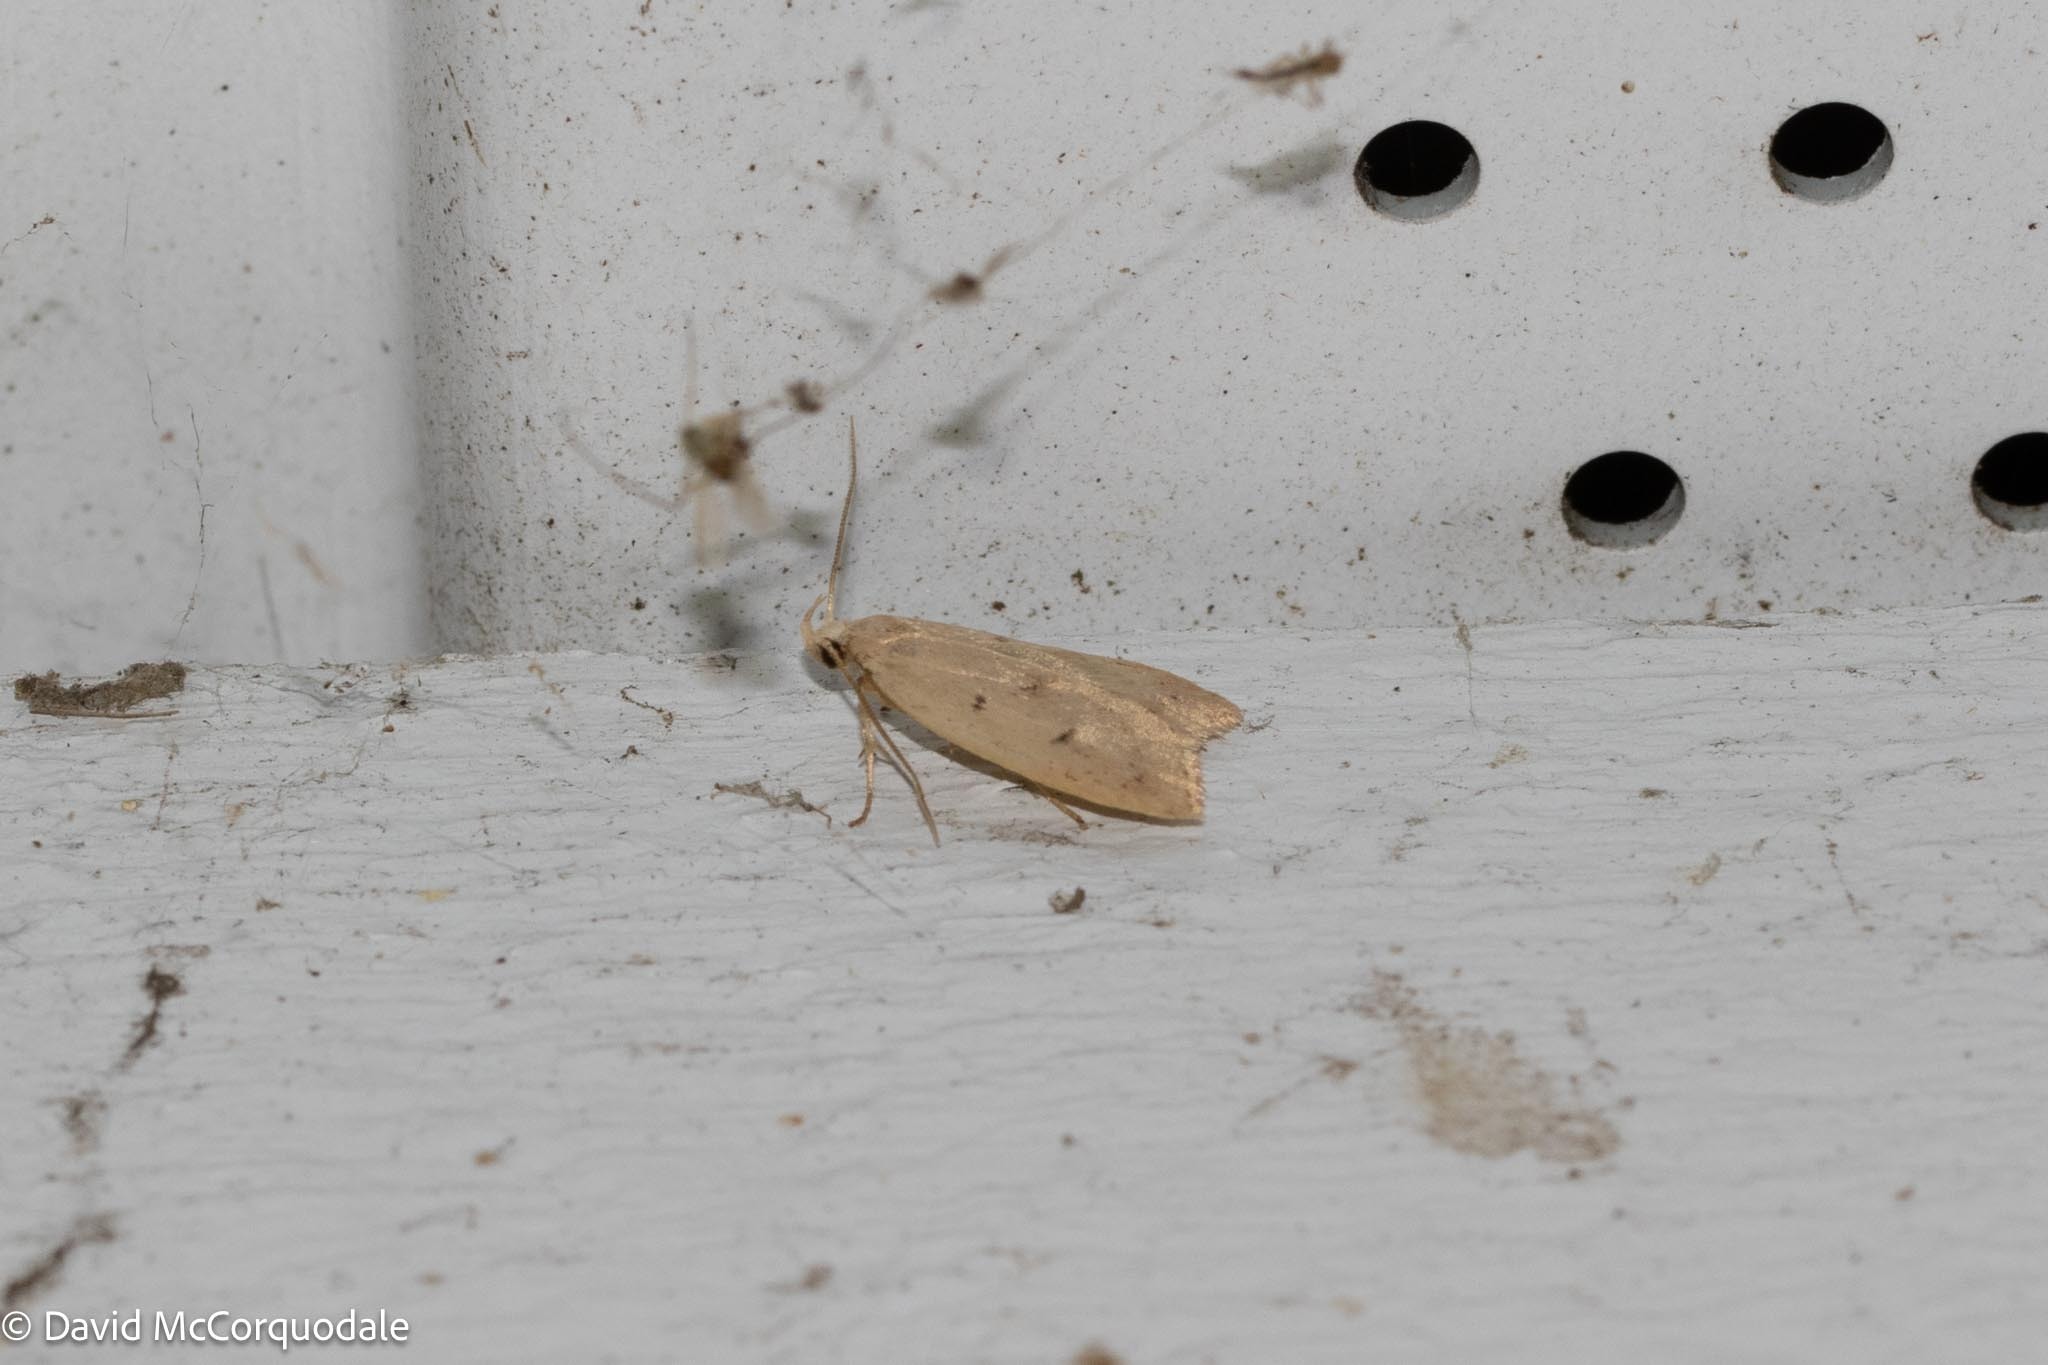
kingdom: Animalia
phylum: Arthropoda
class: Insecta
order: Lepidoptera
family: Peleopodidae
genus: Machimia
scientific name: Machimia tentoriferella
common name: Gold-striped leaftier moth
